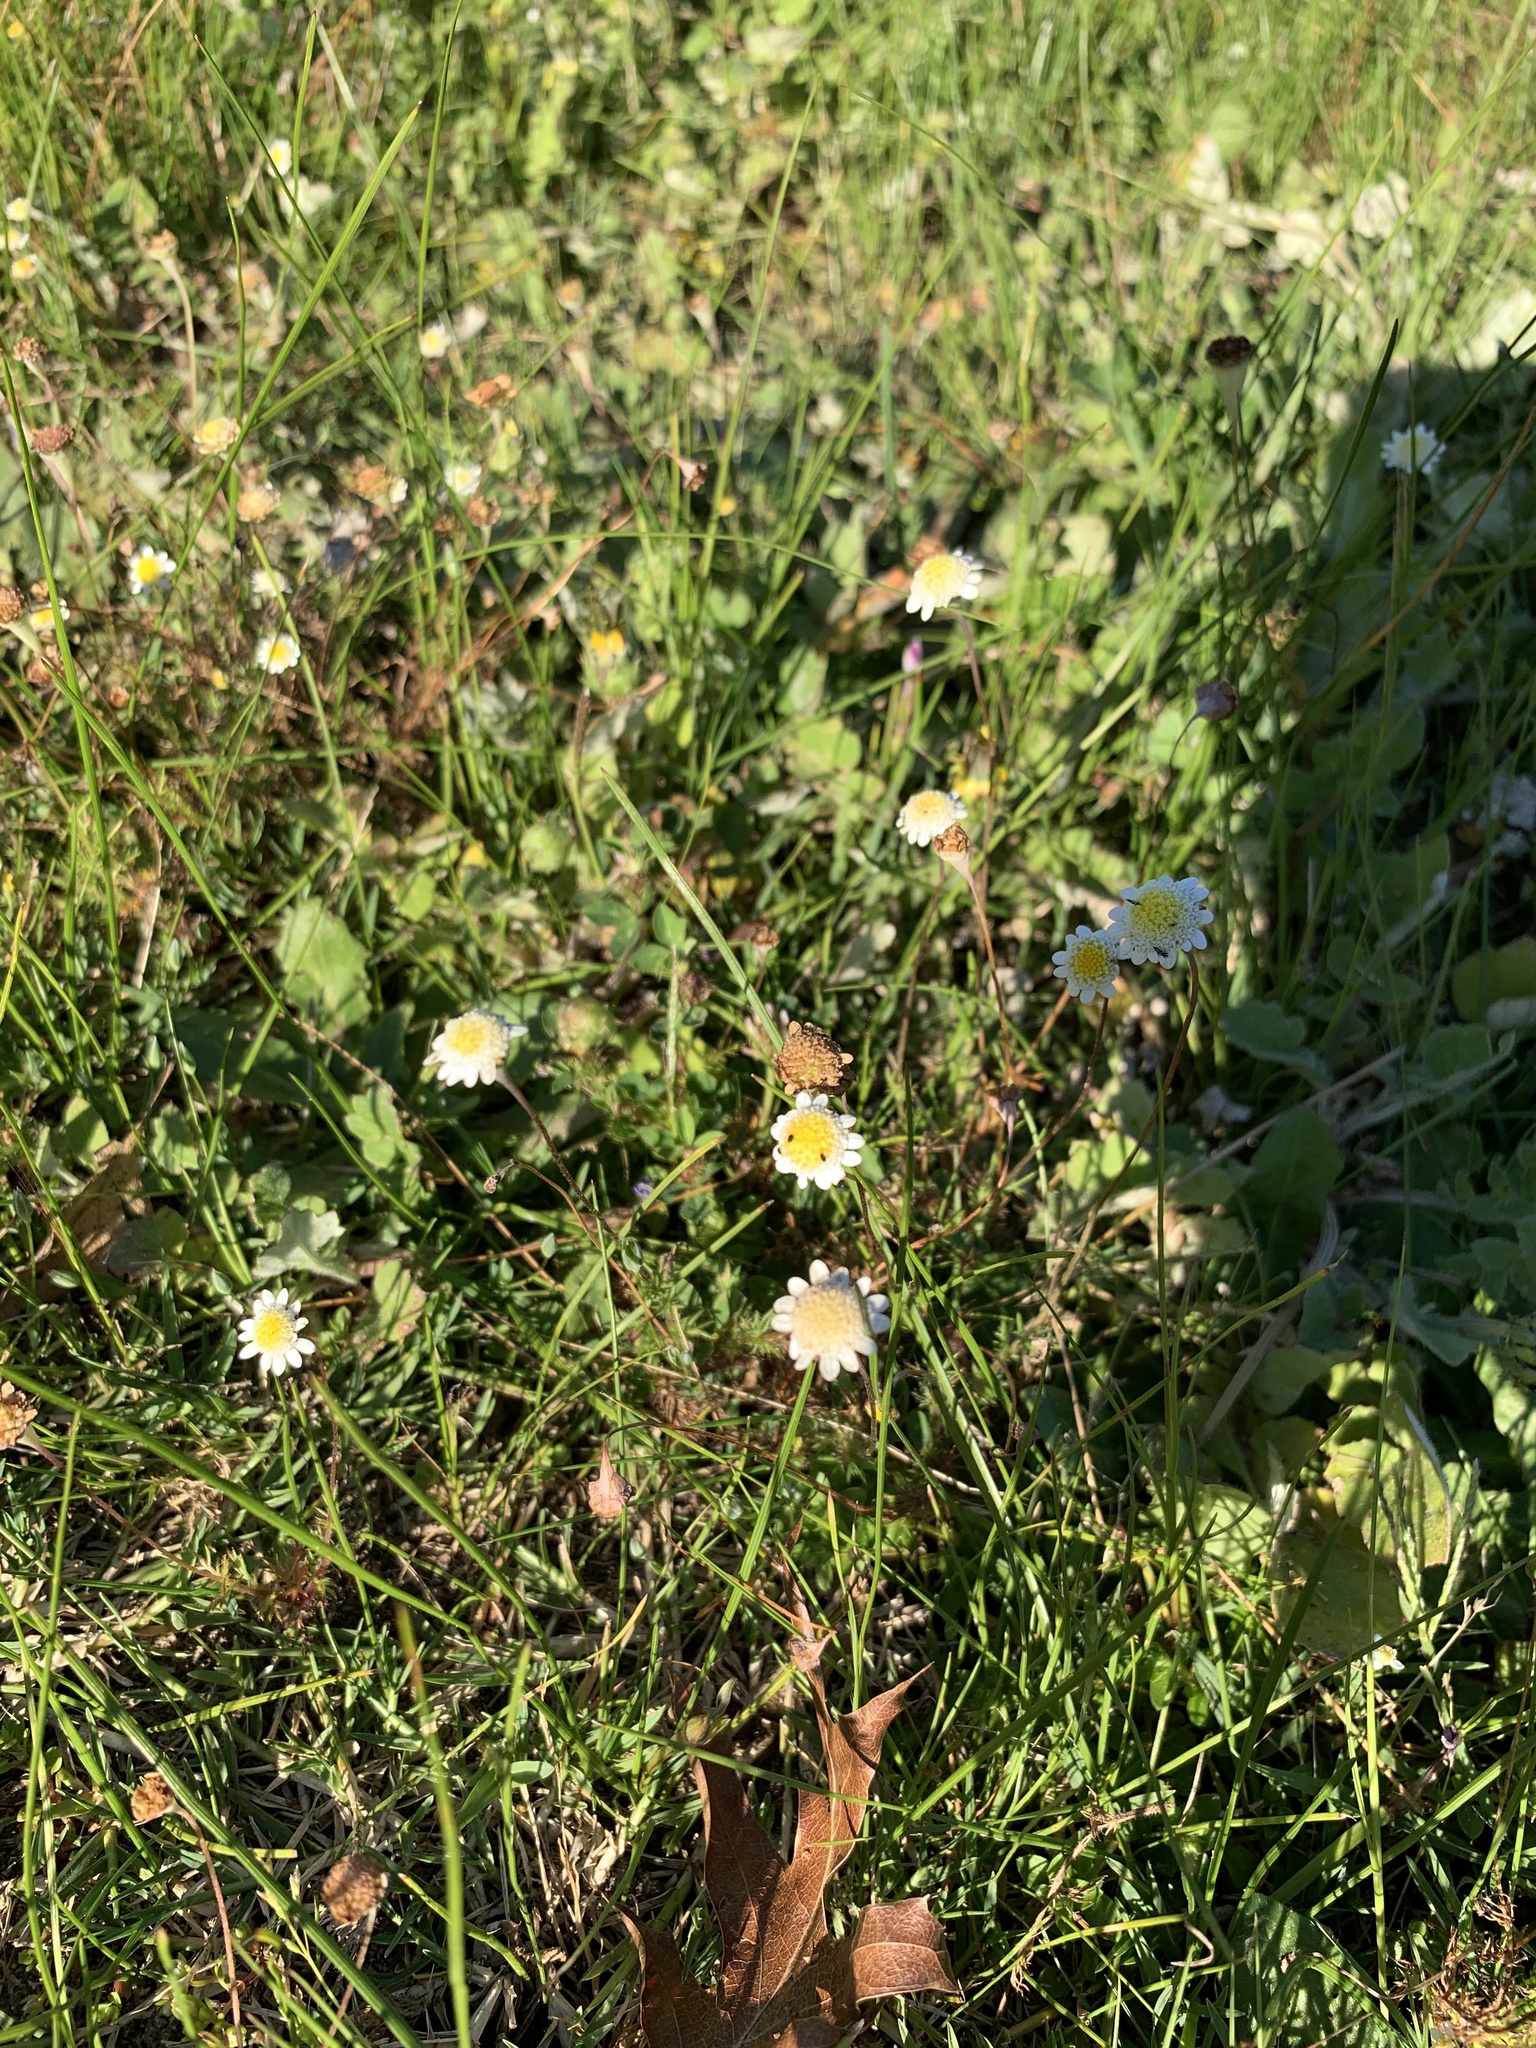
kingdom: Plantae
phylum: Tracheophyta
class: Magnoliopsida
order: Asterales
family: Asteraceae
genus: Cotula
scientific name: Cotula turbinata
